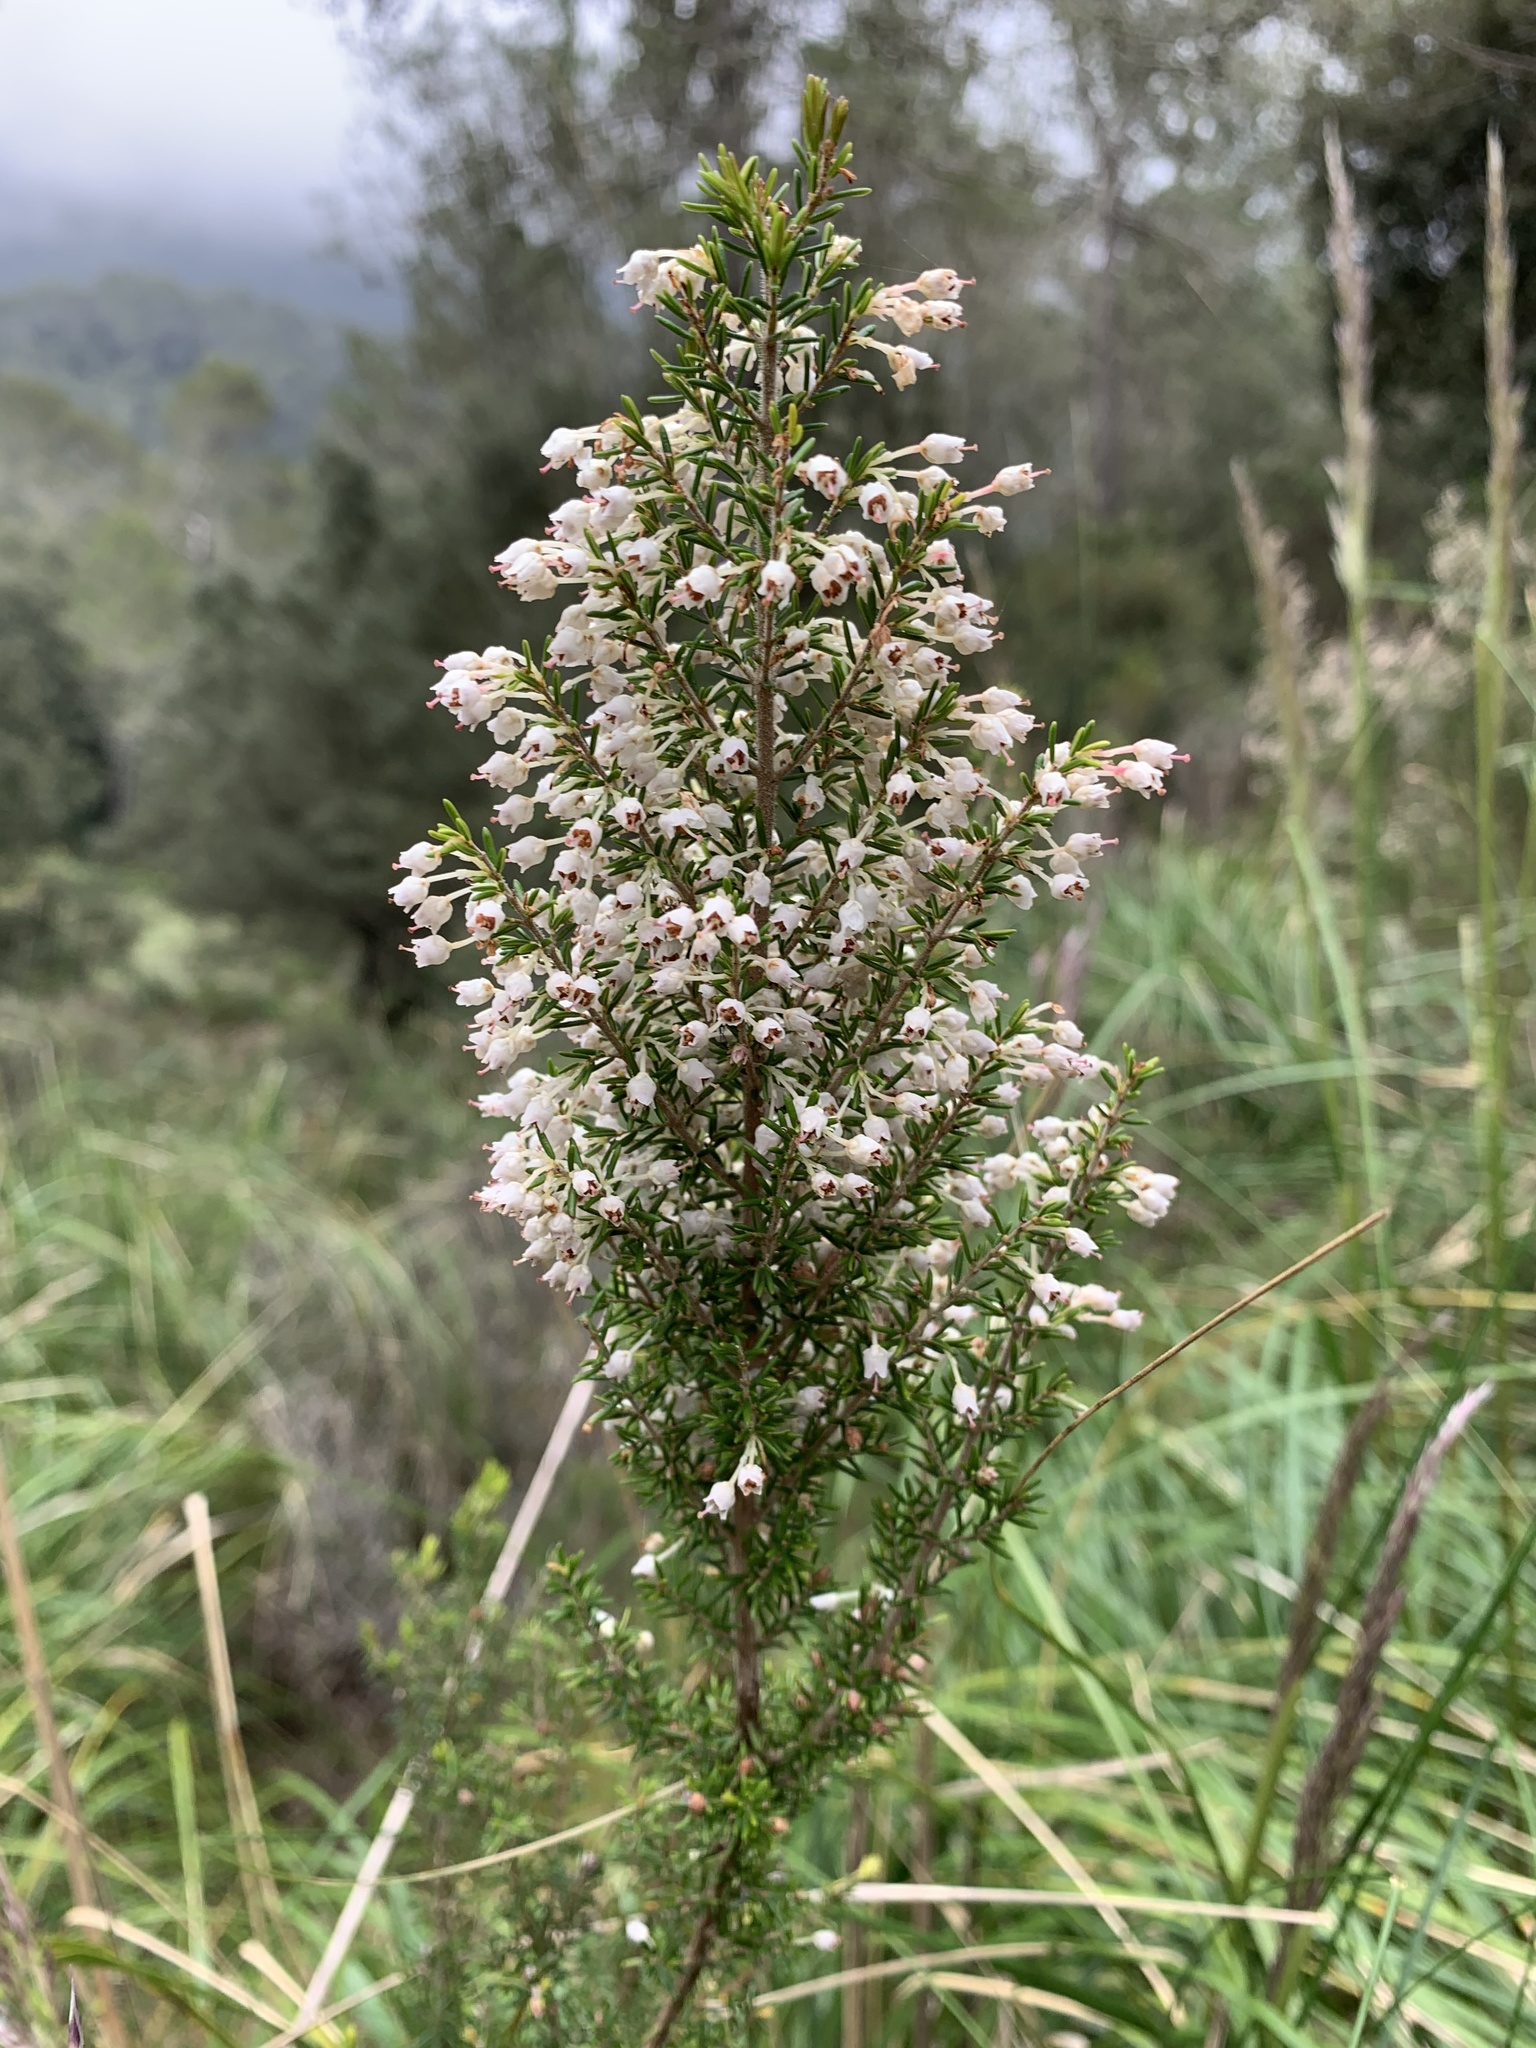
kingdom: Plantae
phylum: Tracheophyta
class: Magnoliopsida
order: Ericales
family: Ericaceae
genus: Erica
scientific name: Erica arborea
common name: Tree heath
